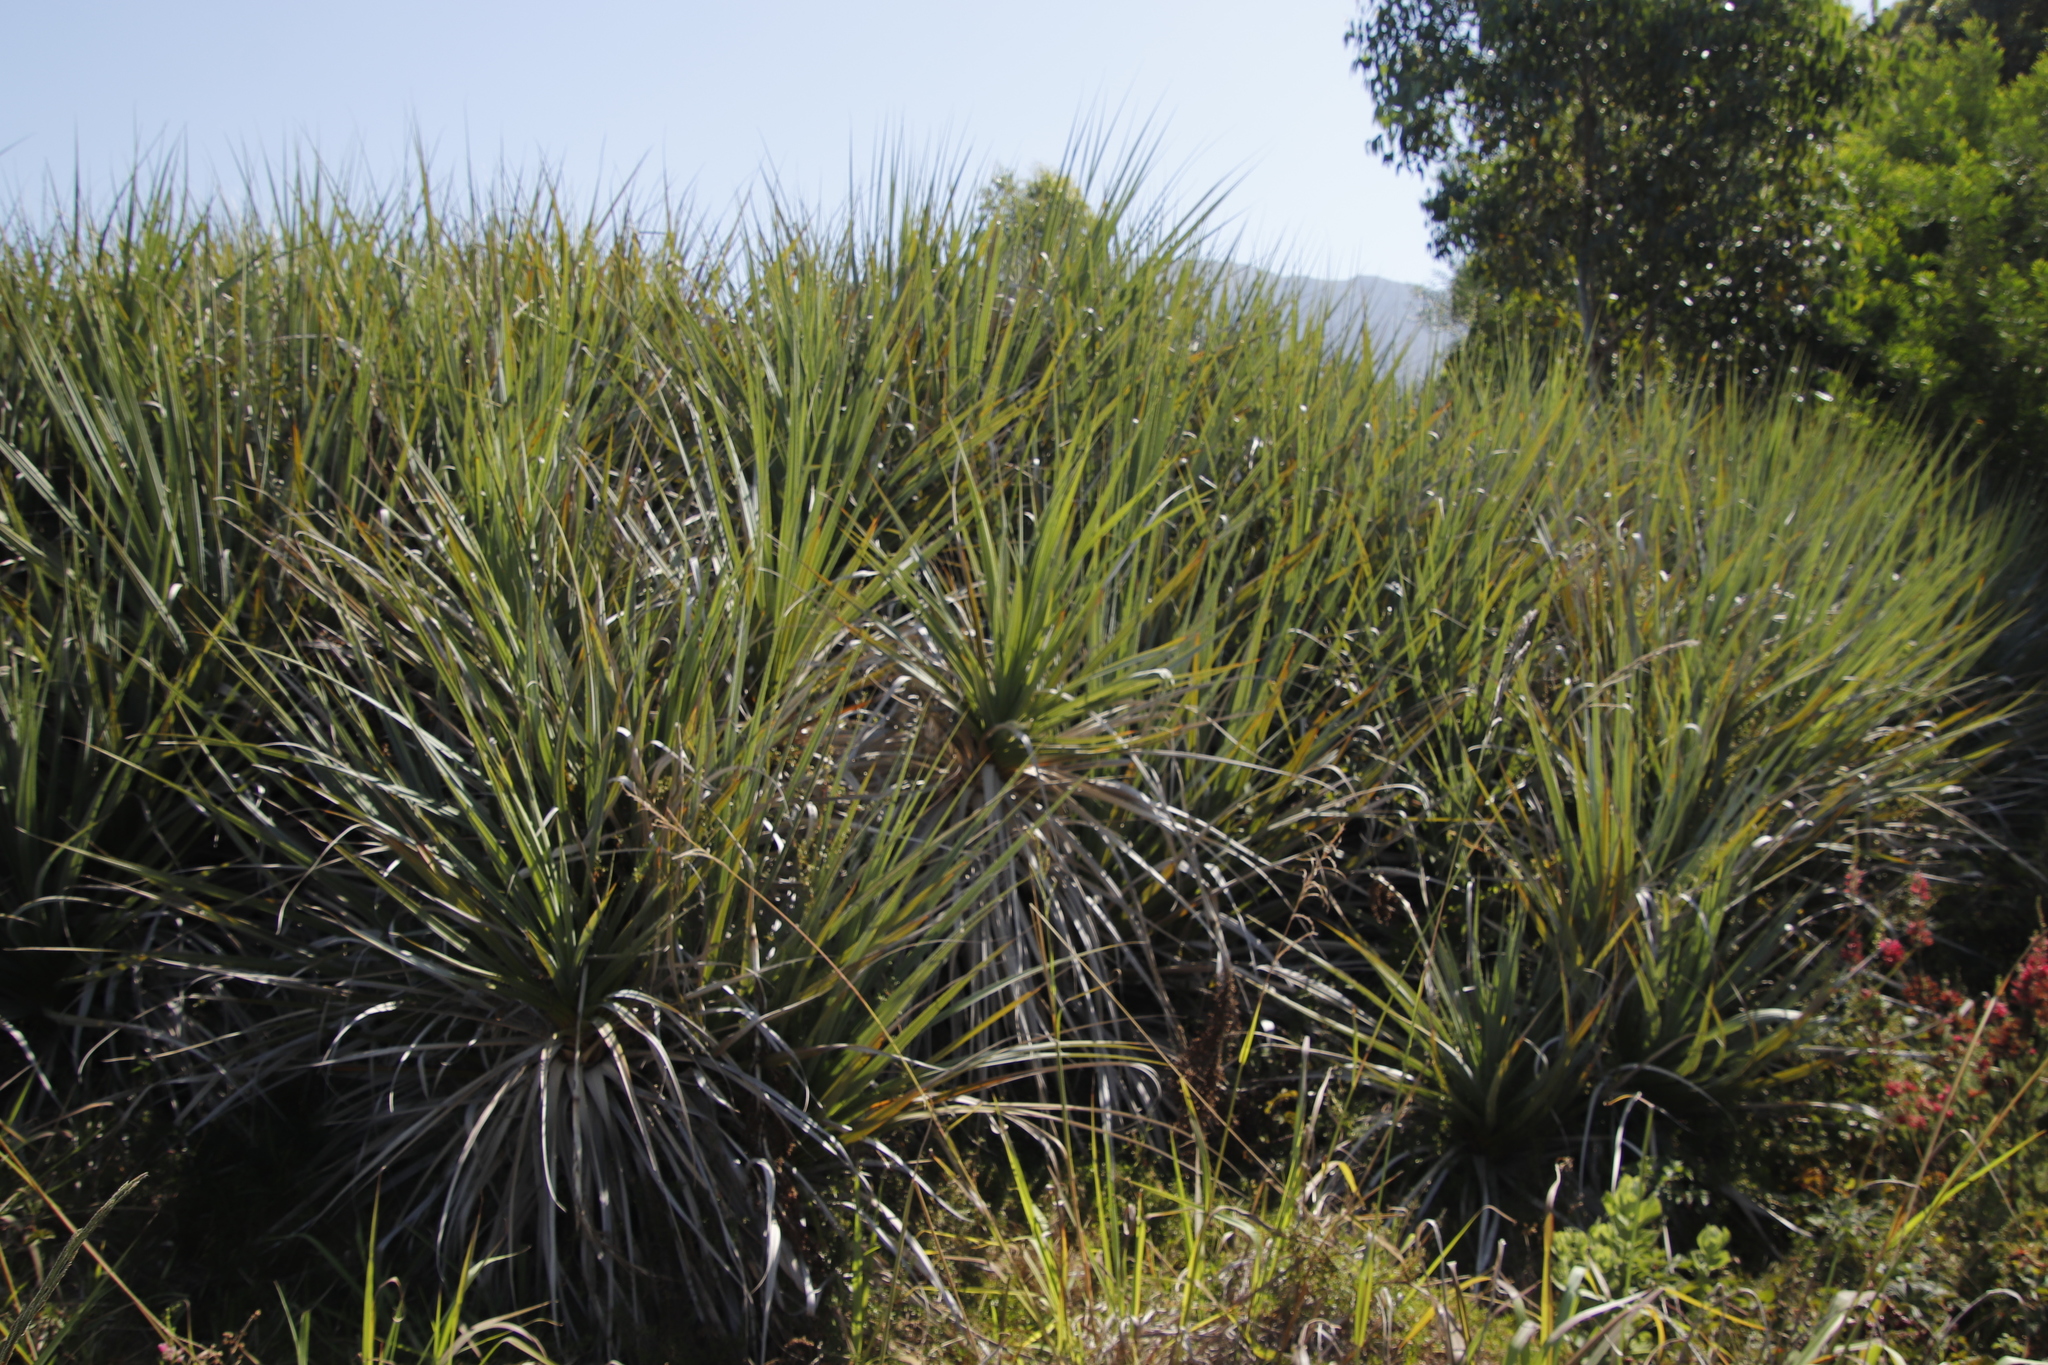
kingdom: Plantae
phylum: Tracheophyta
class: Liliopsida
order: Poales
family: Thurniaceae
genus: Prionium
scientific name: Prionium serratum
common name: Palmiet
